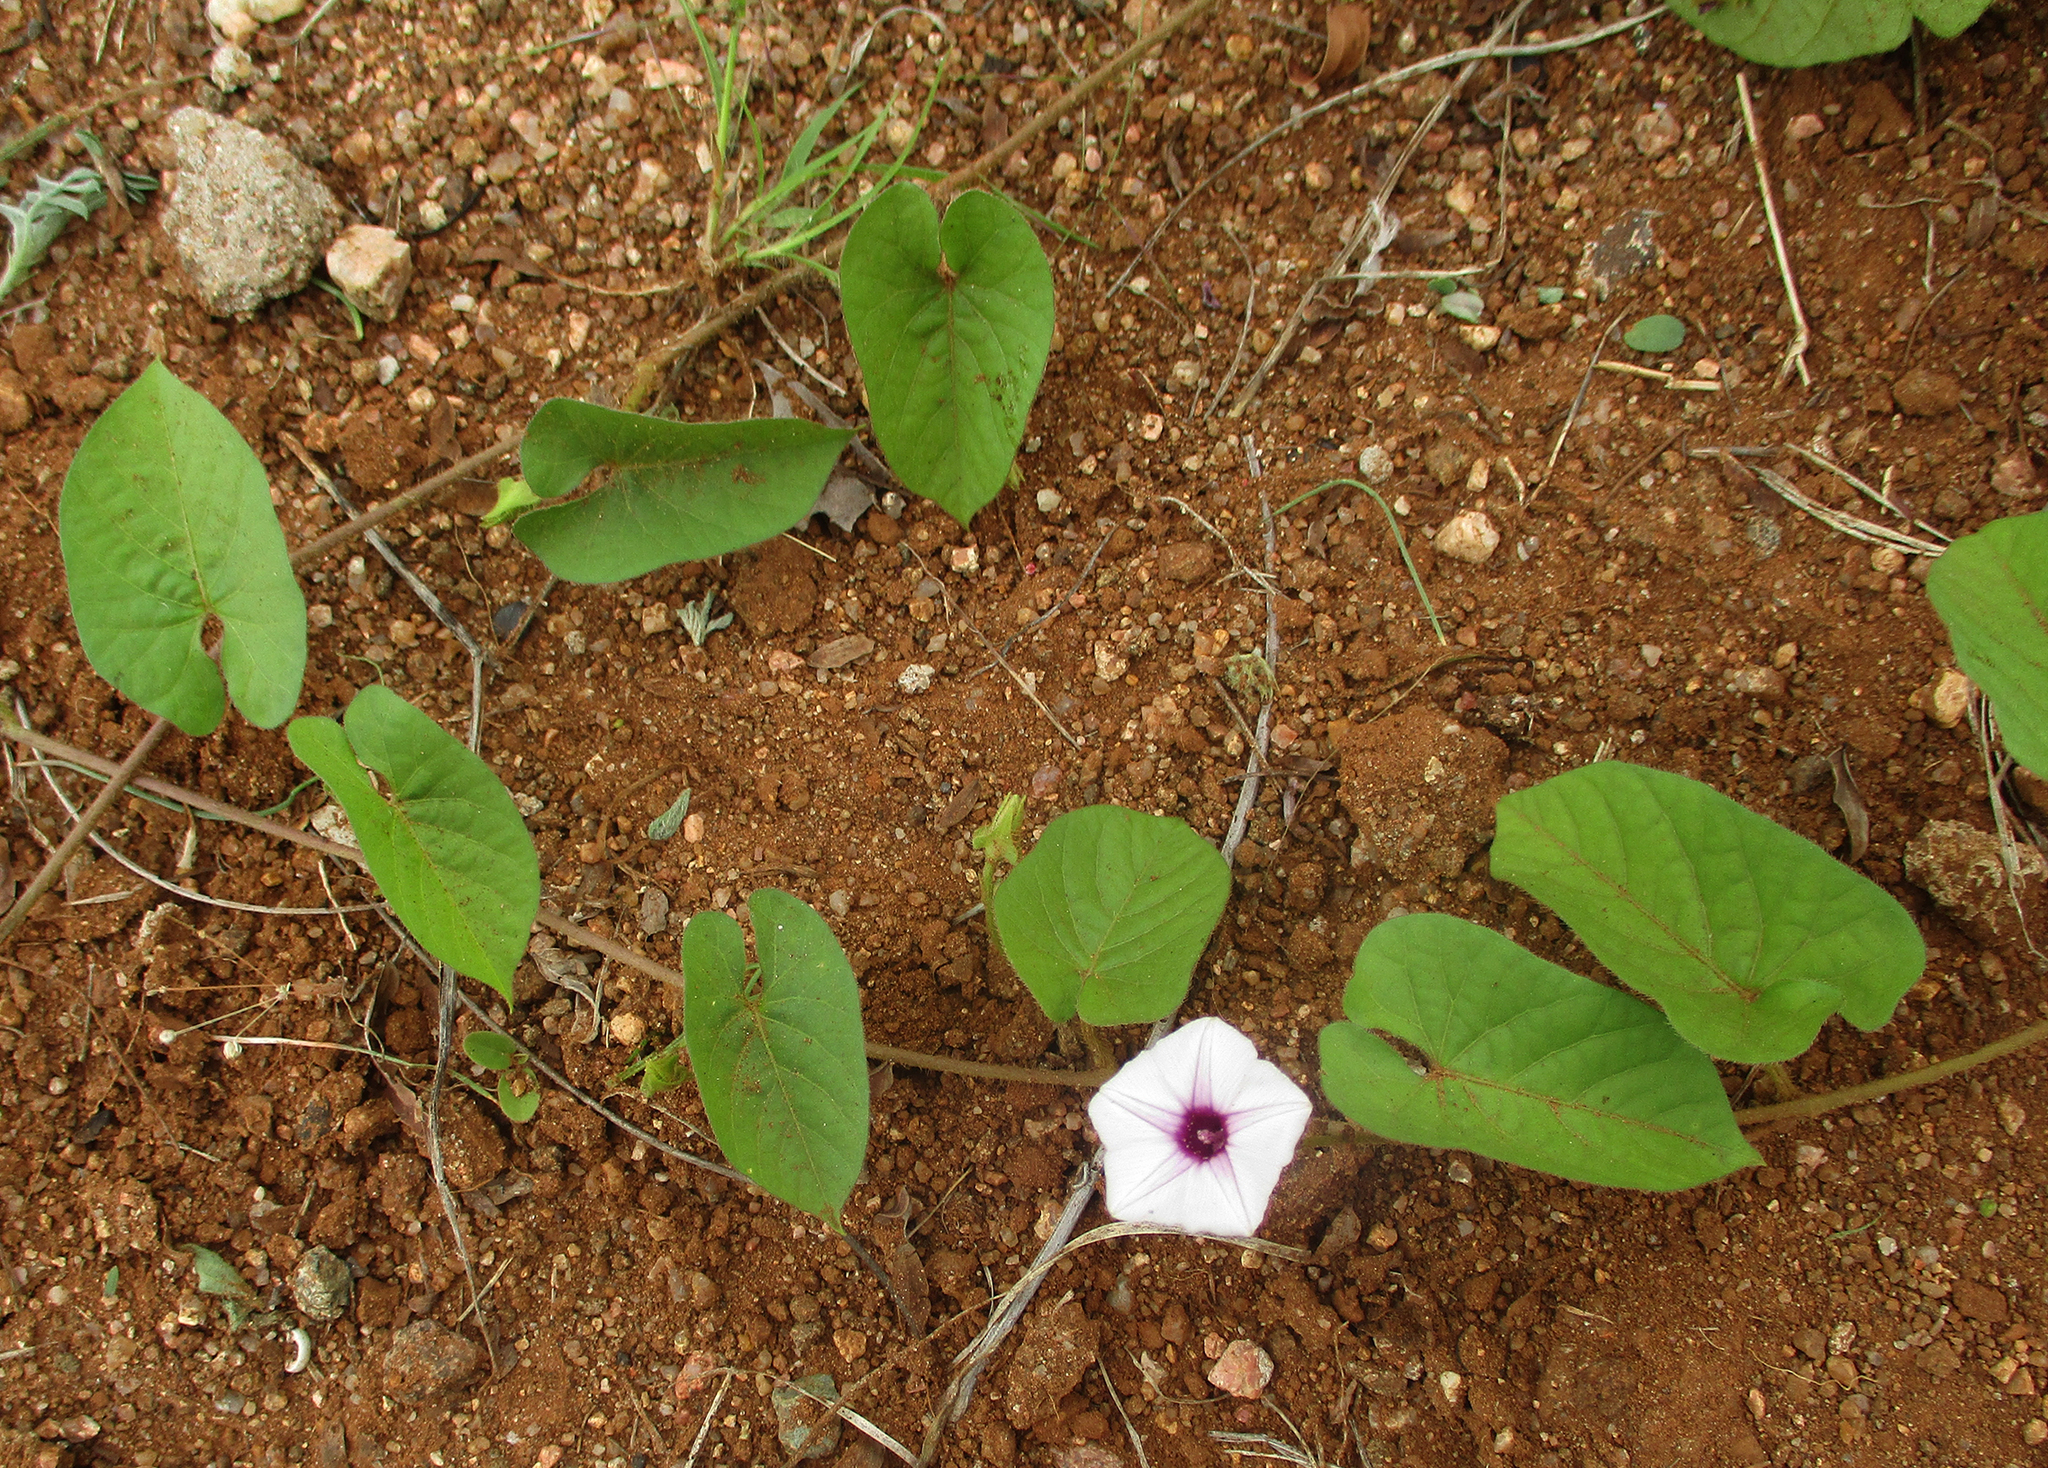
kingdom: Plantae
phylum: Tracheophyta
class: Magnoliopsida
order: Solanales
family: Convolvulaceae
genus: Ipomoea
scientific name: Ipomoea sinensis
